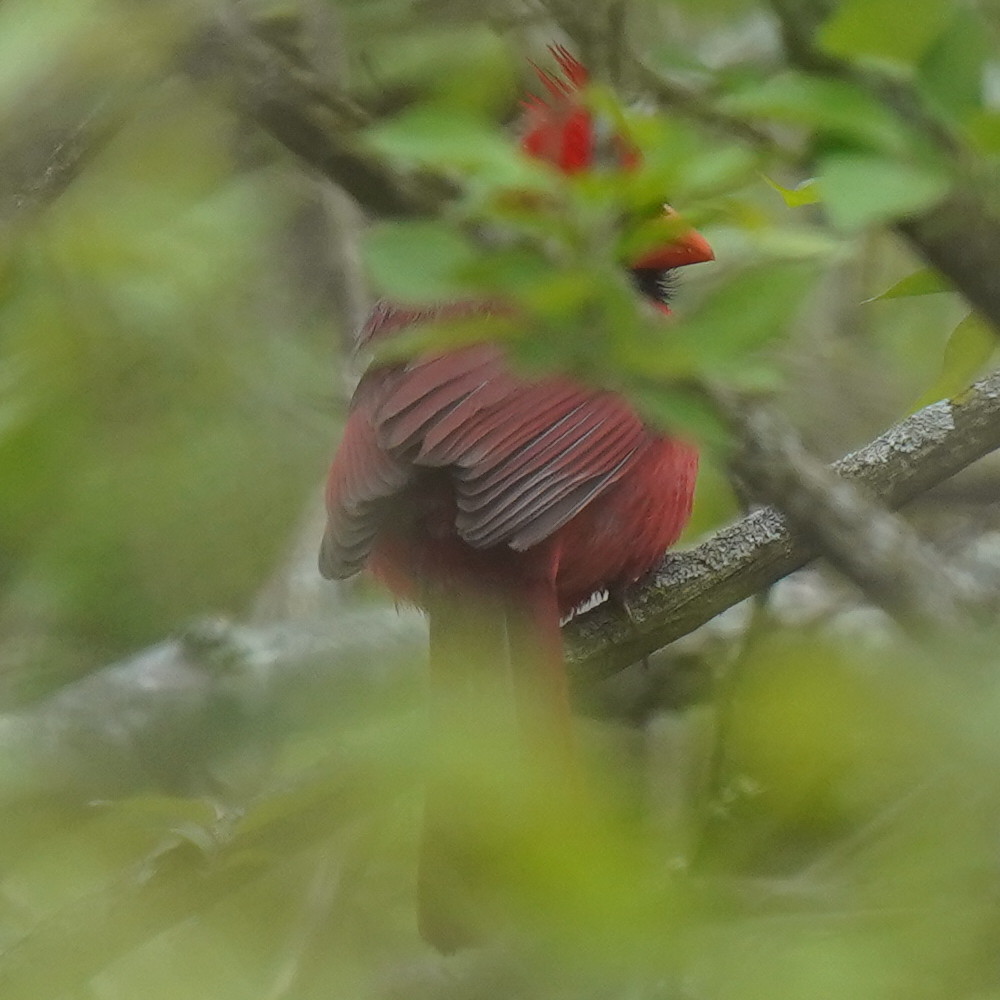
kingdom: Animalia
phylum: Chordata
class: Aves
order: Passeriformes
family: Cardinalidae
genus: Cardinalis
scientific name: Cardinalis cardinalis
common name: Northern cardinal
